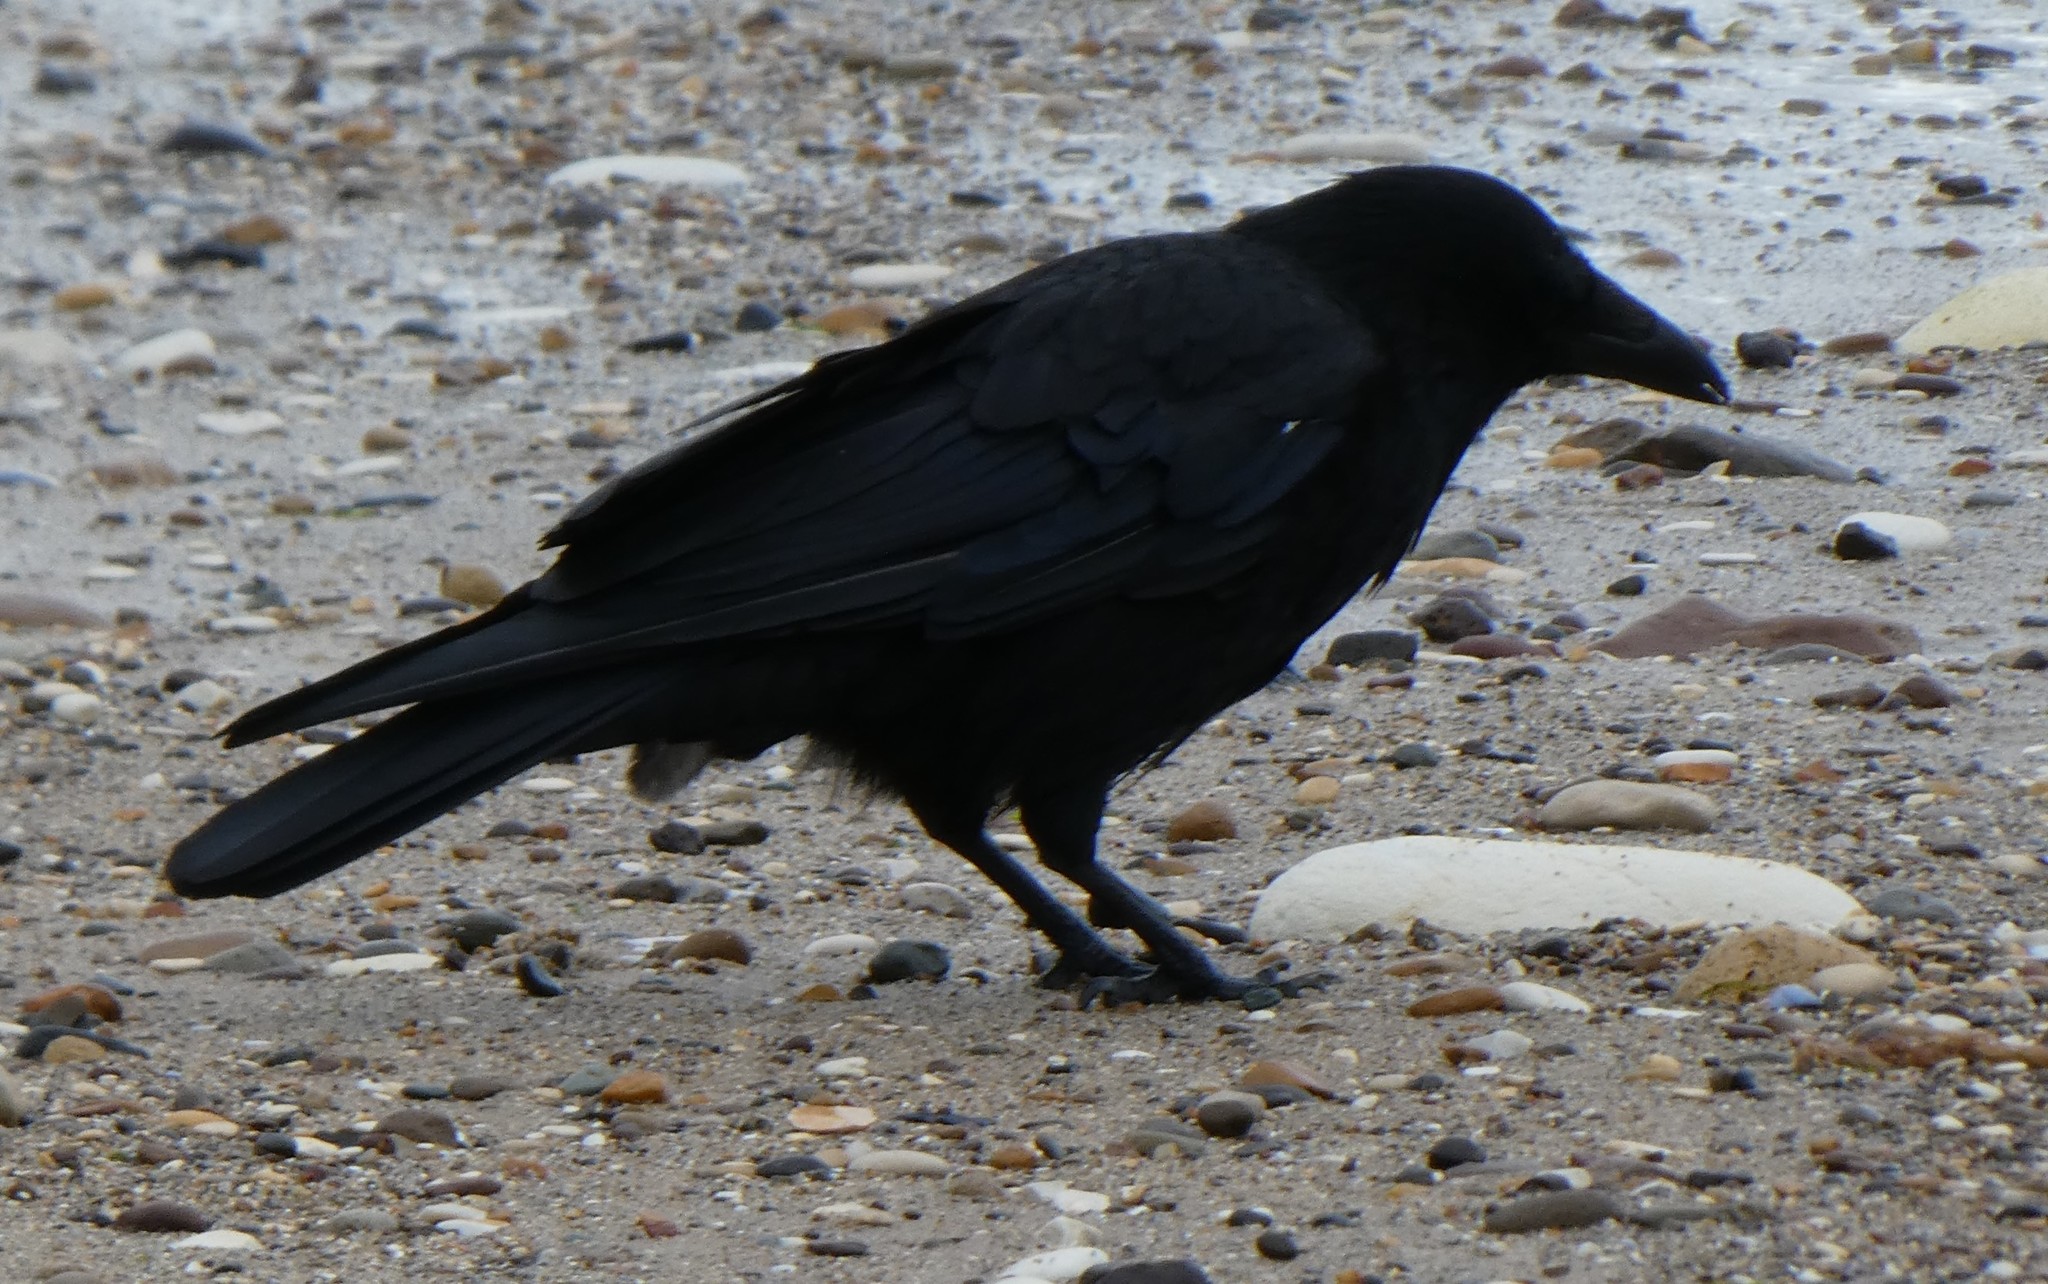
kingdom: Animalia
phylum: Chordata
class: Aves
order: Passeriformes
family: Corvidae
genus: Corvus
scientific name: Corvus corone
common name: Carrion crow
